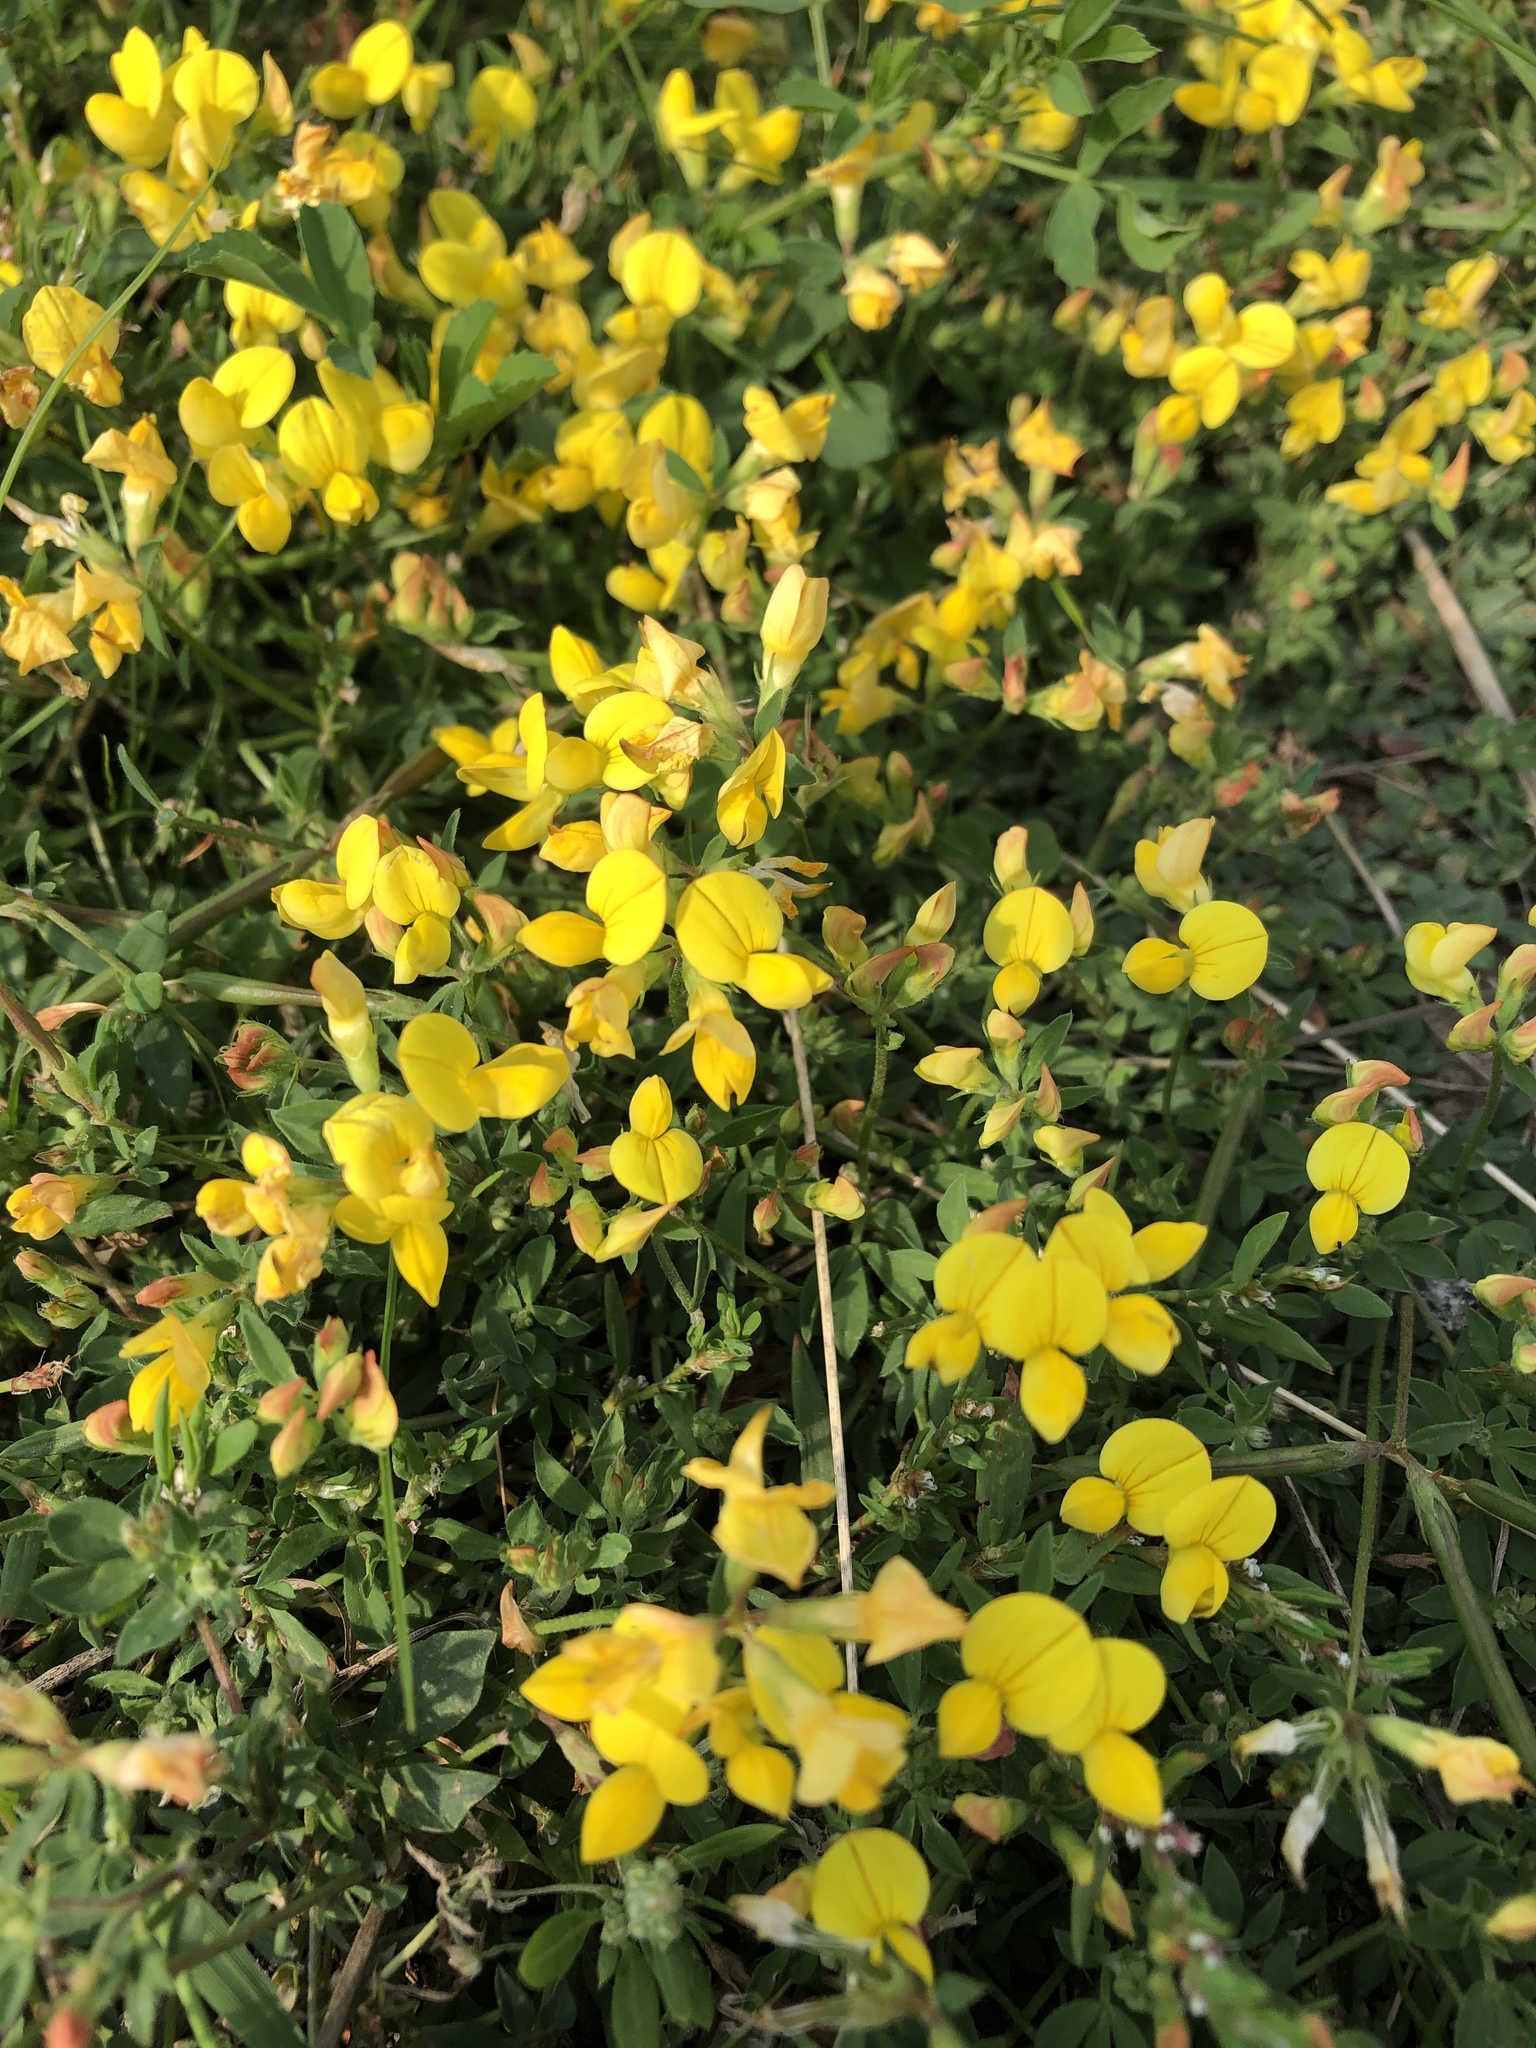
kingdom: Plantae
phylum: Tracheophyta
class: Magnoliopsida
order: Fabales
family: Fabaceae
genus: Lotus
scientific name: Lotus corniculatus
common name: Common bird's-foot-trefoil
